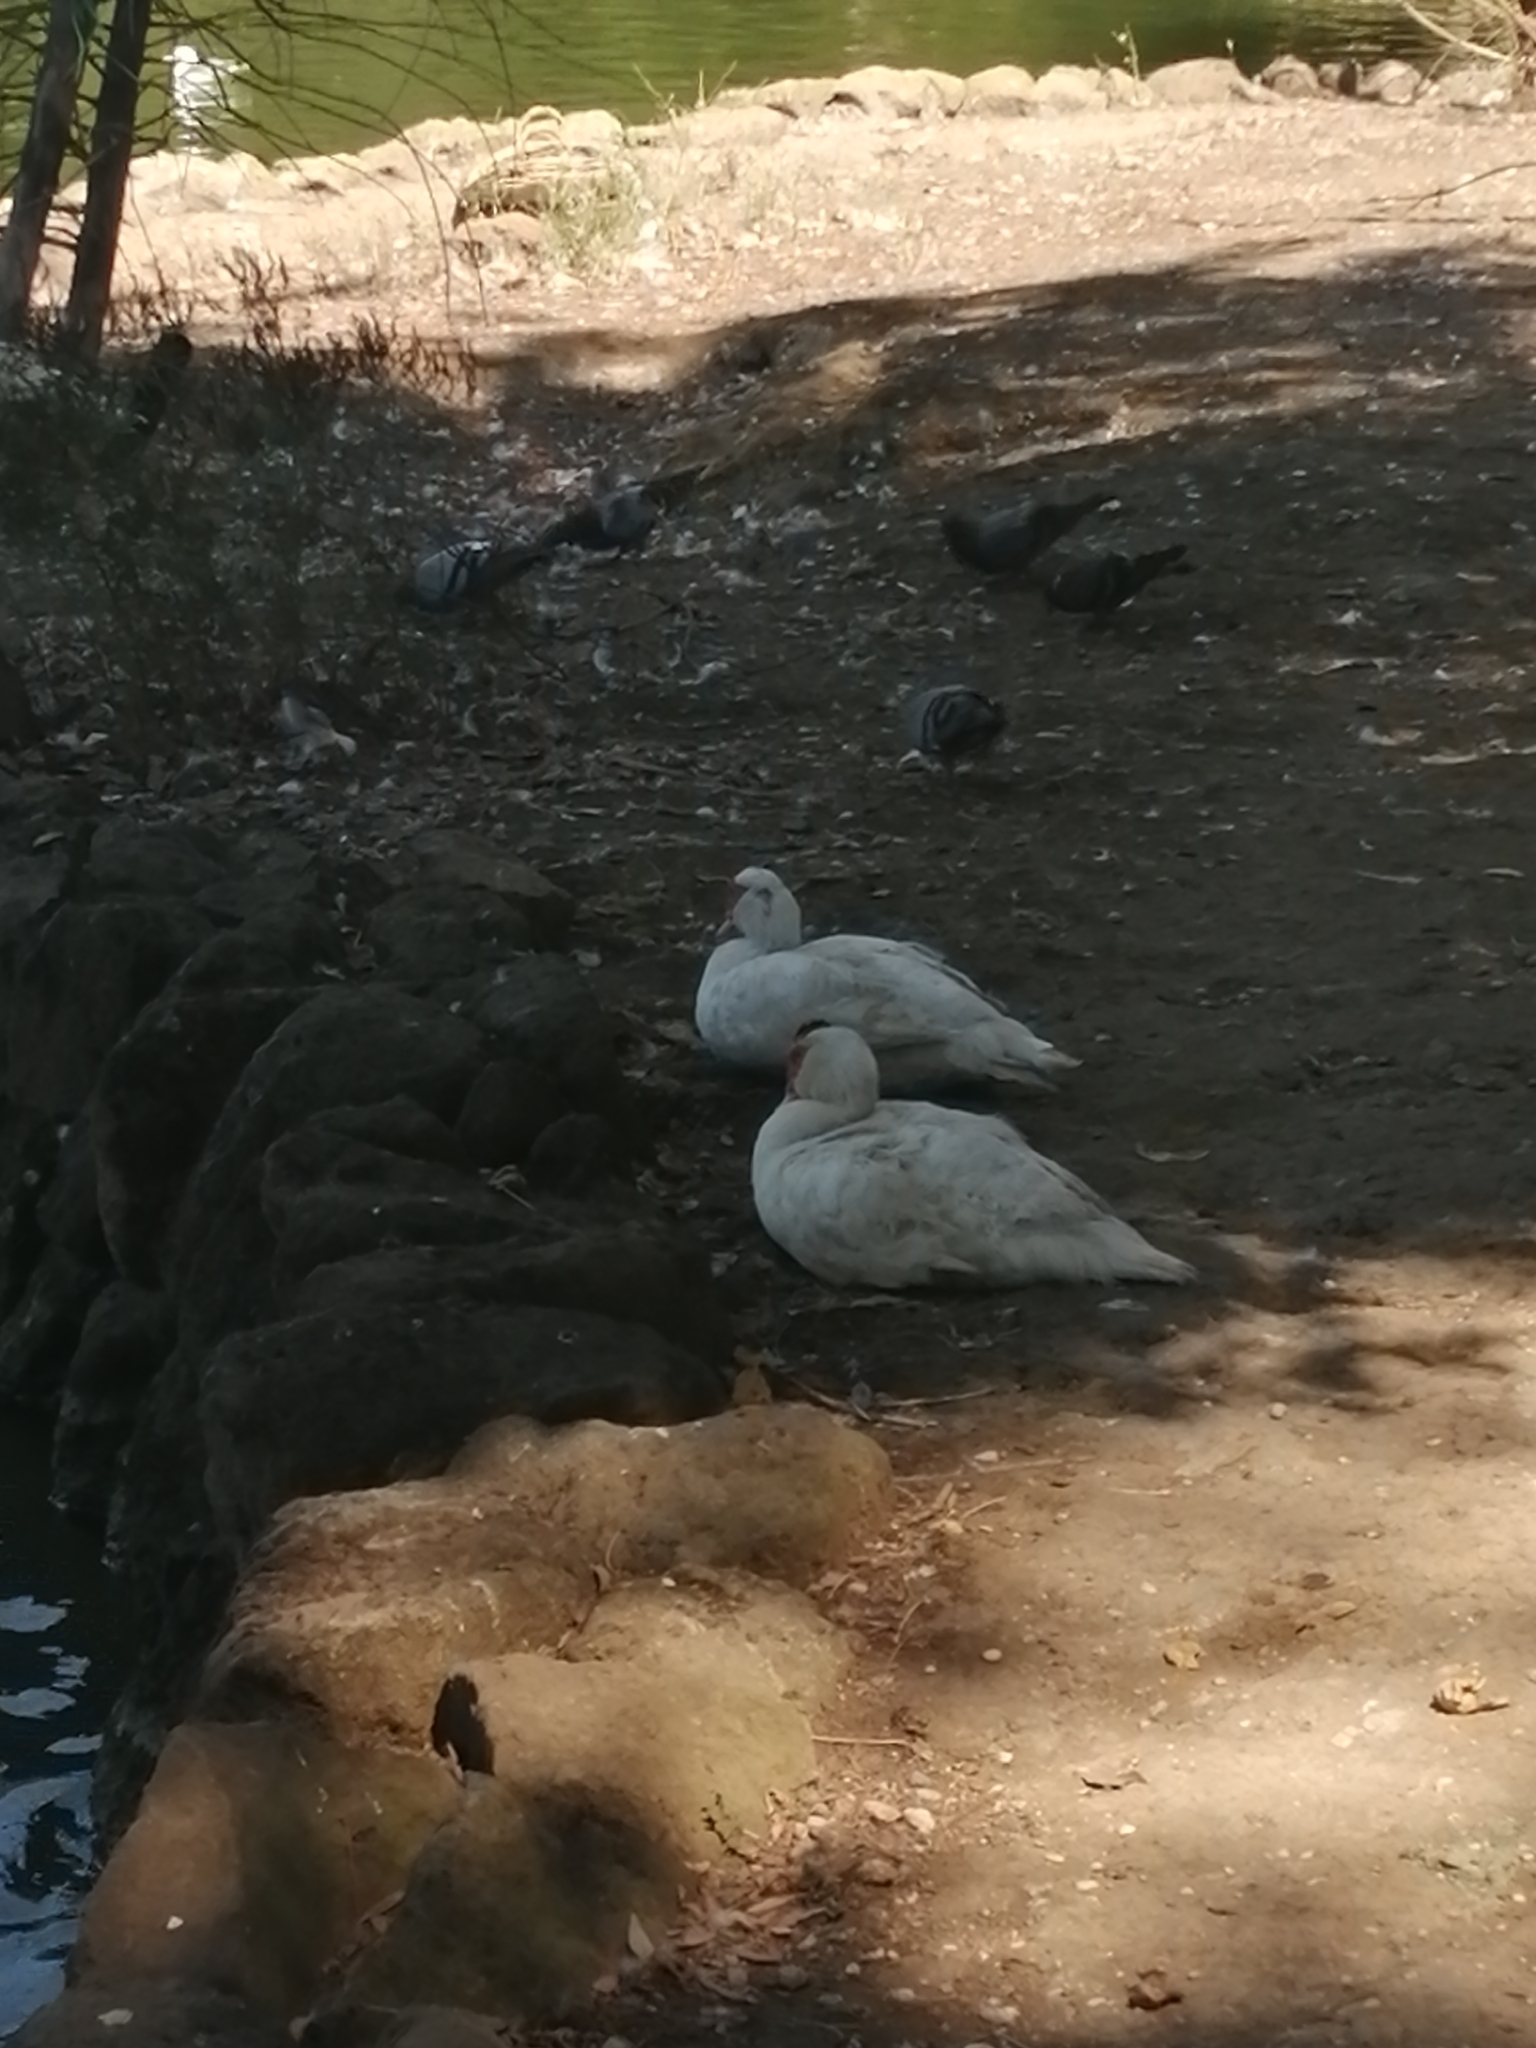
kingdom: Animalia
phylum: Chordata
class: Aves
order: Anseriformes
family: Anatidae
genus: Cairina
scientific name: Cairina moschata
